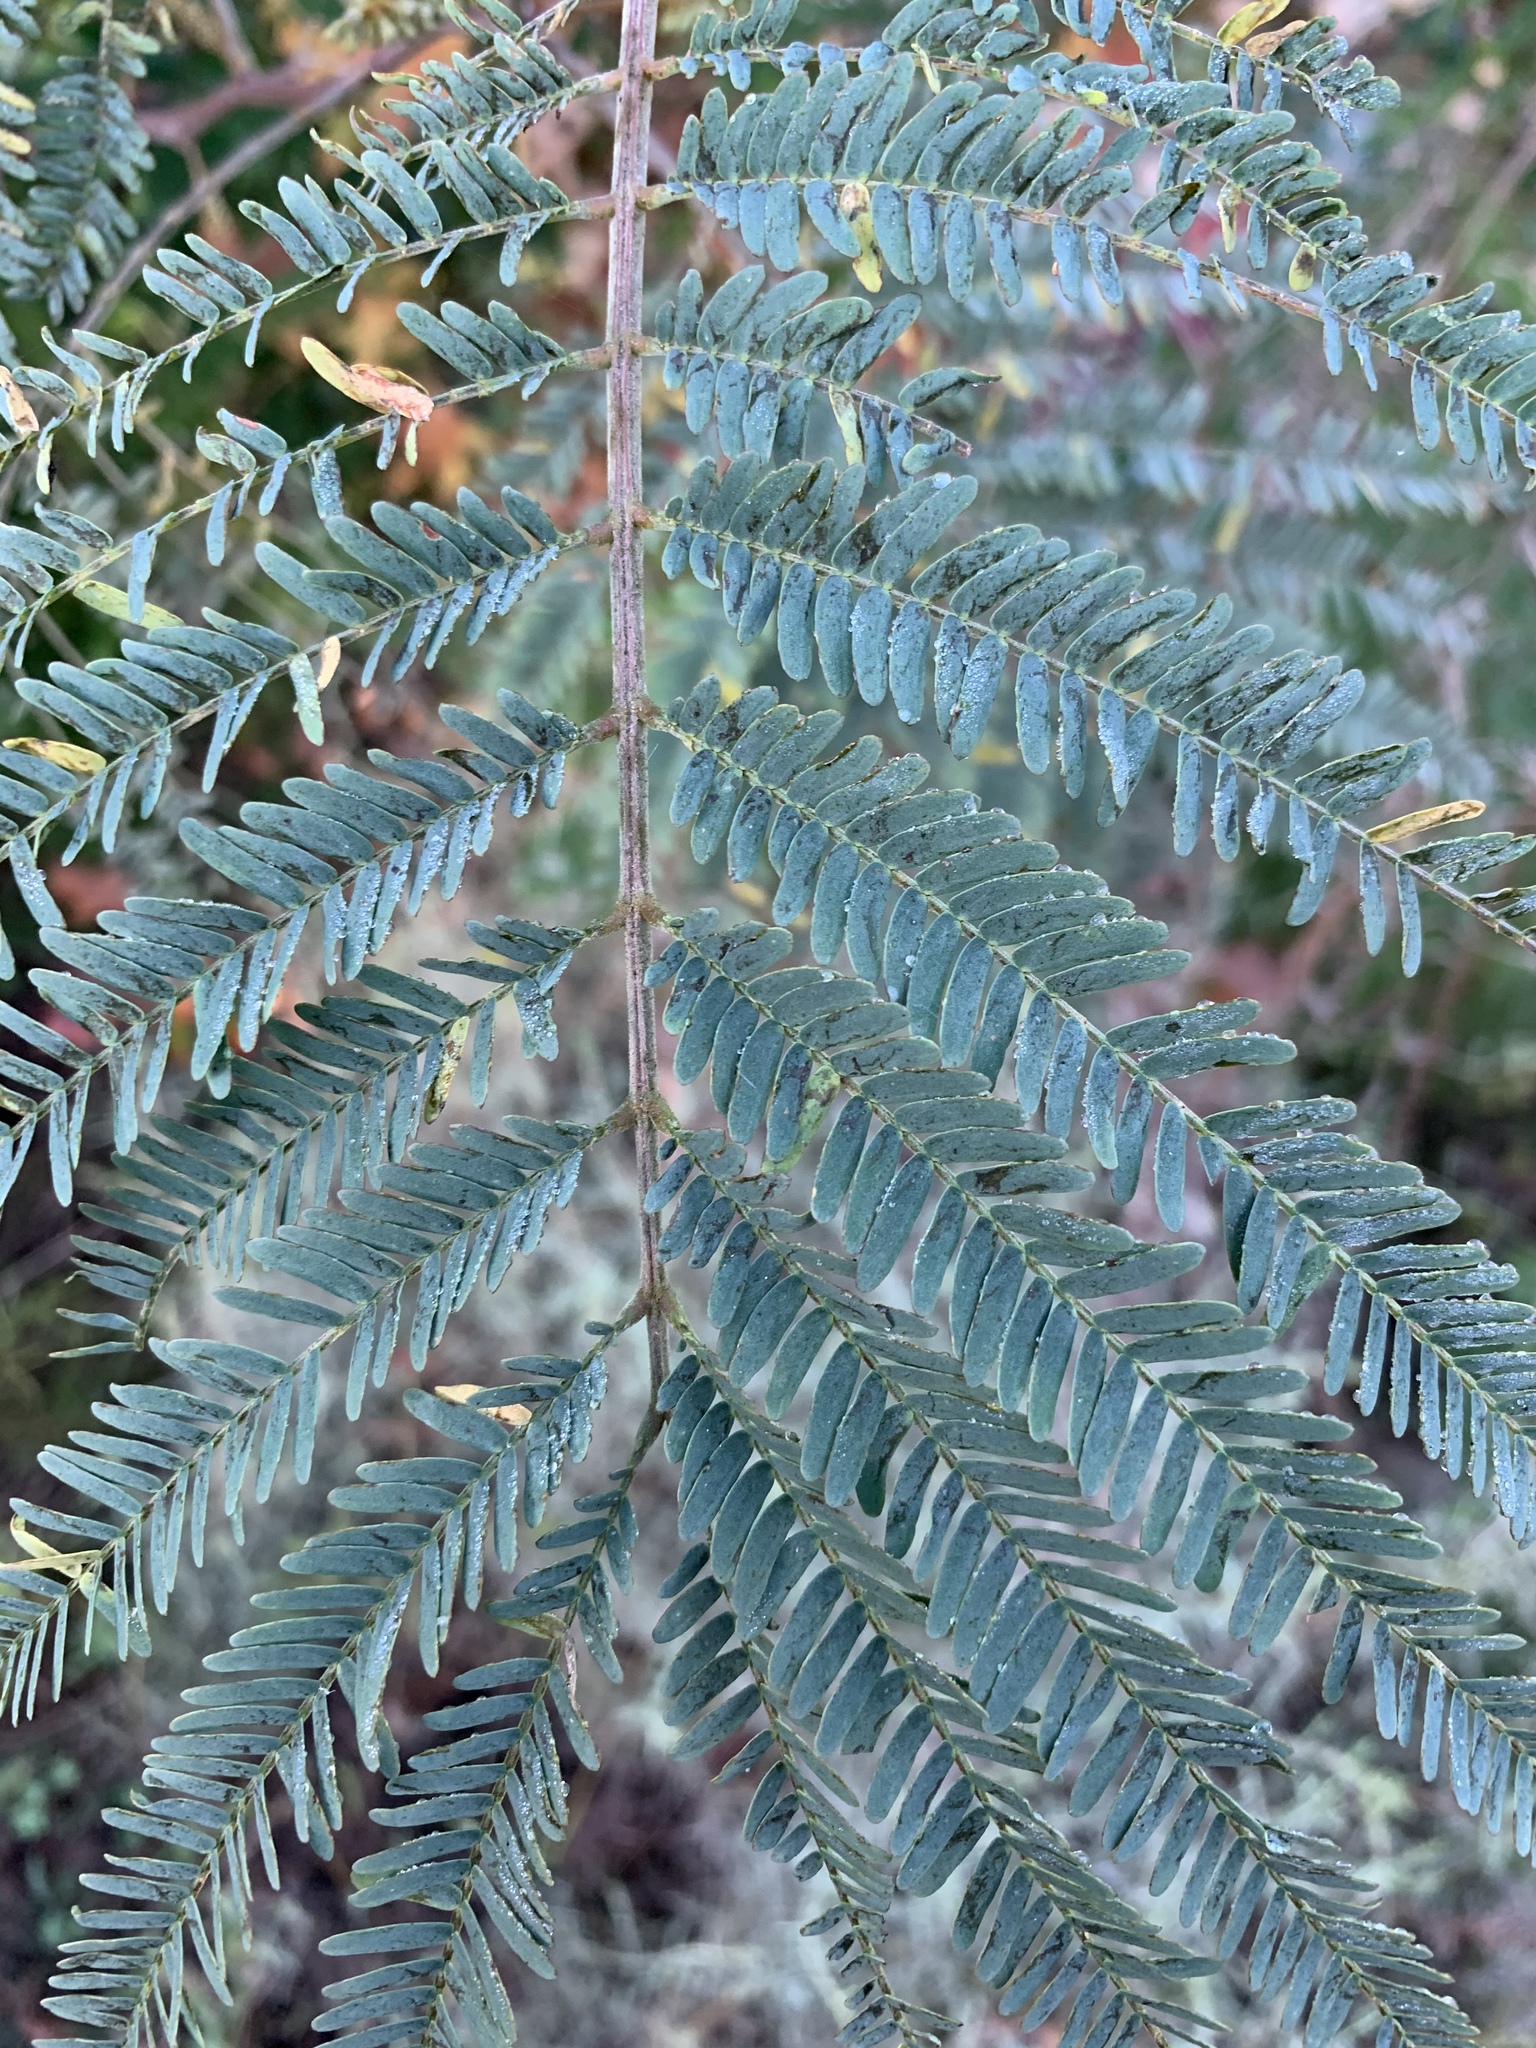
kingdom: Plantae
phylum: Tracheophyta
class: Magnoliopsida
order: Fabales
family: Fabaceae
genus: Paraserianthes
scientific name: Paraserianthes lophantha
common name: Plume albizia
